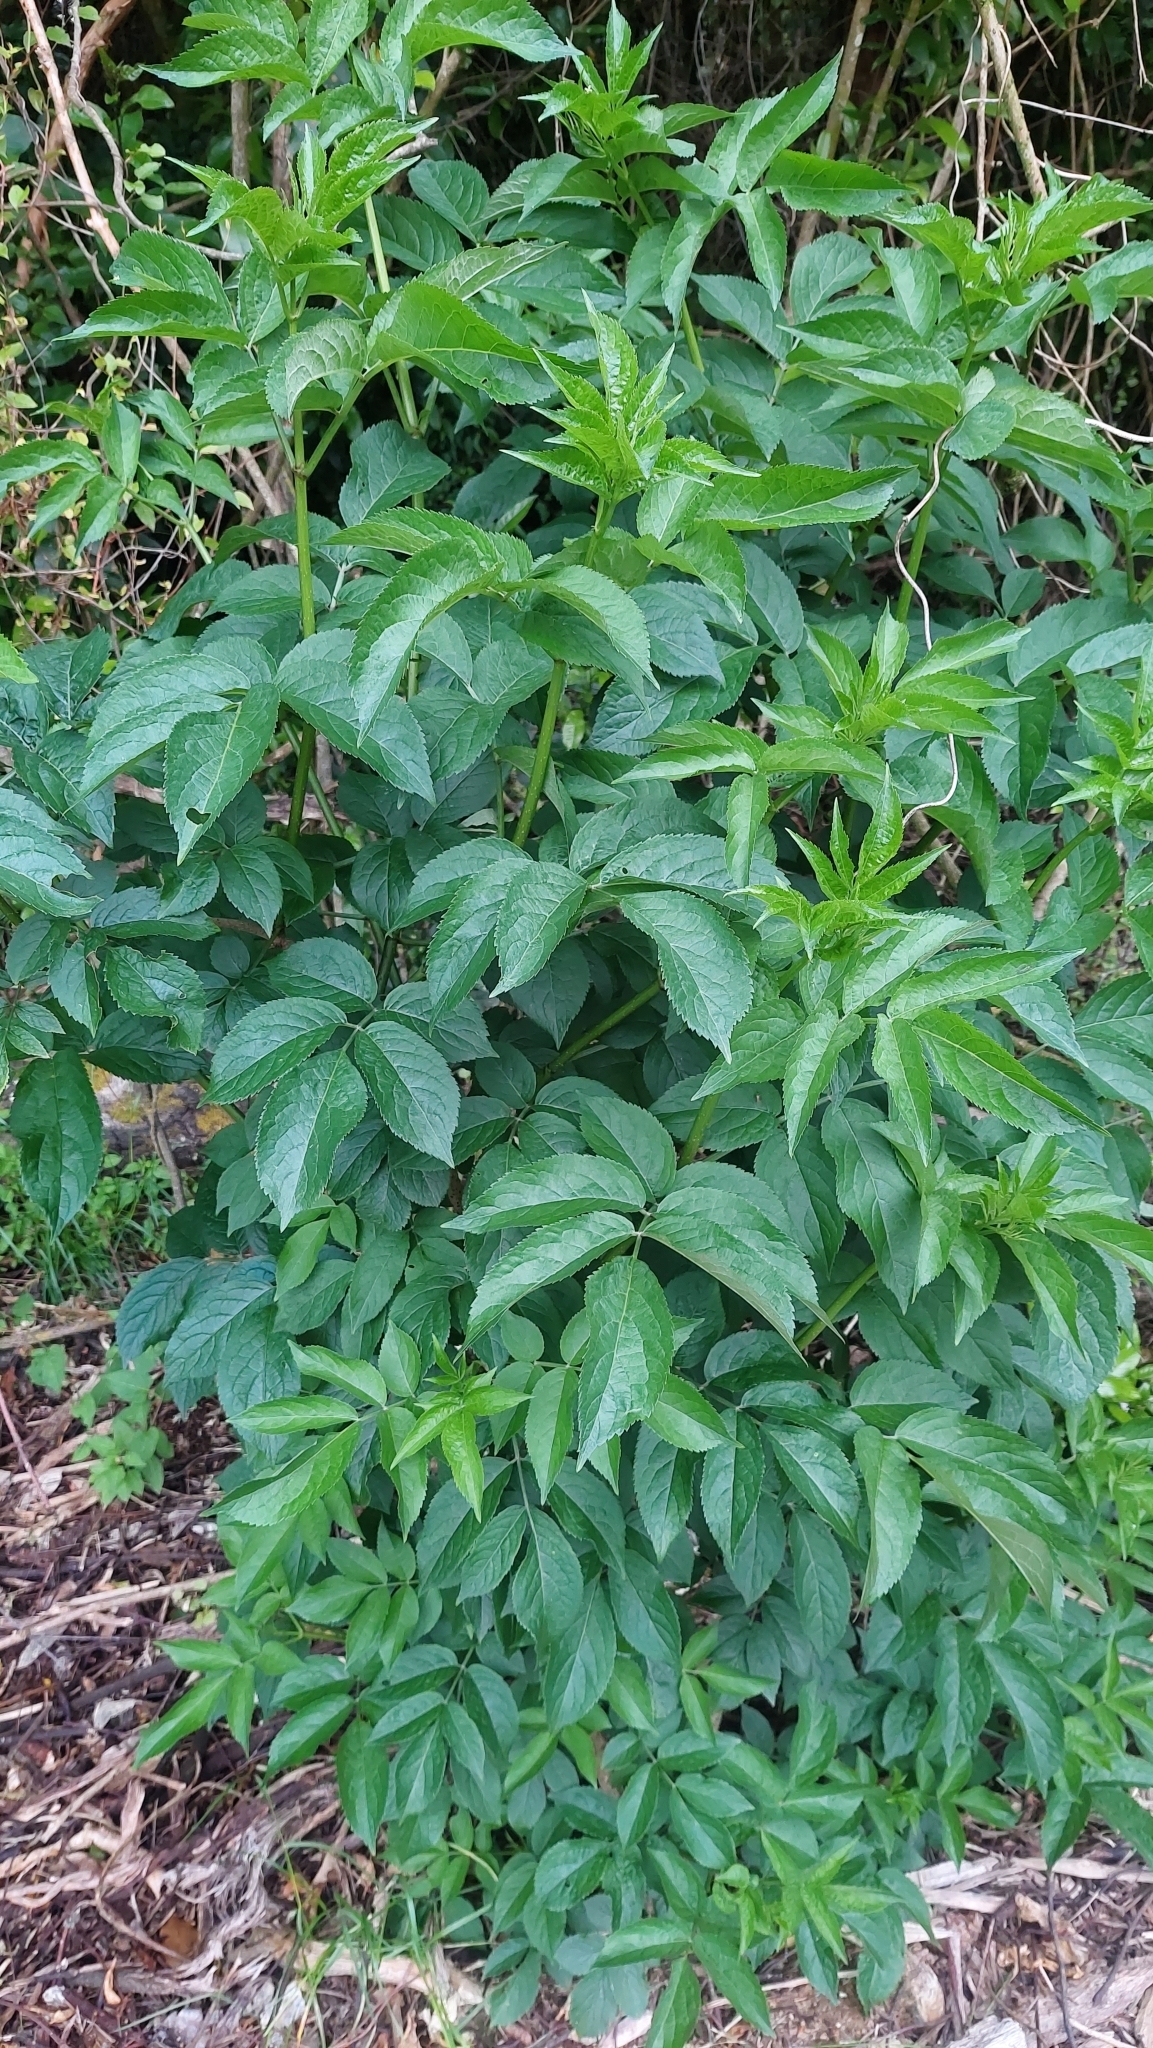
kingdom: Plantae
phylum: Tracheophyta
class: Magnoliopsida
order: Dipsacales
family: Viburnaceae
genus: Sambucus
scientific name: Sambucus nigra
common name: Elder
